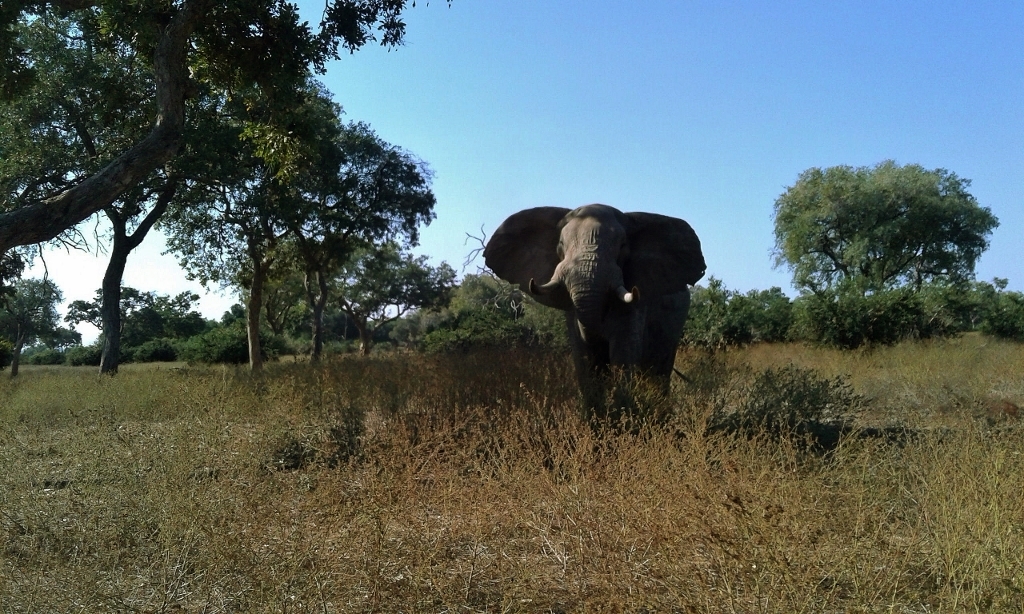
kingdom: Animalia
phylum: Chordata
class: Mammalia
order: Proboscidea
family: Elephantidae
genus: Loxodonta
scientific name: Loxodonta africana
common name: African elephant
